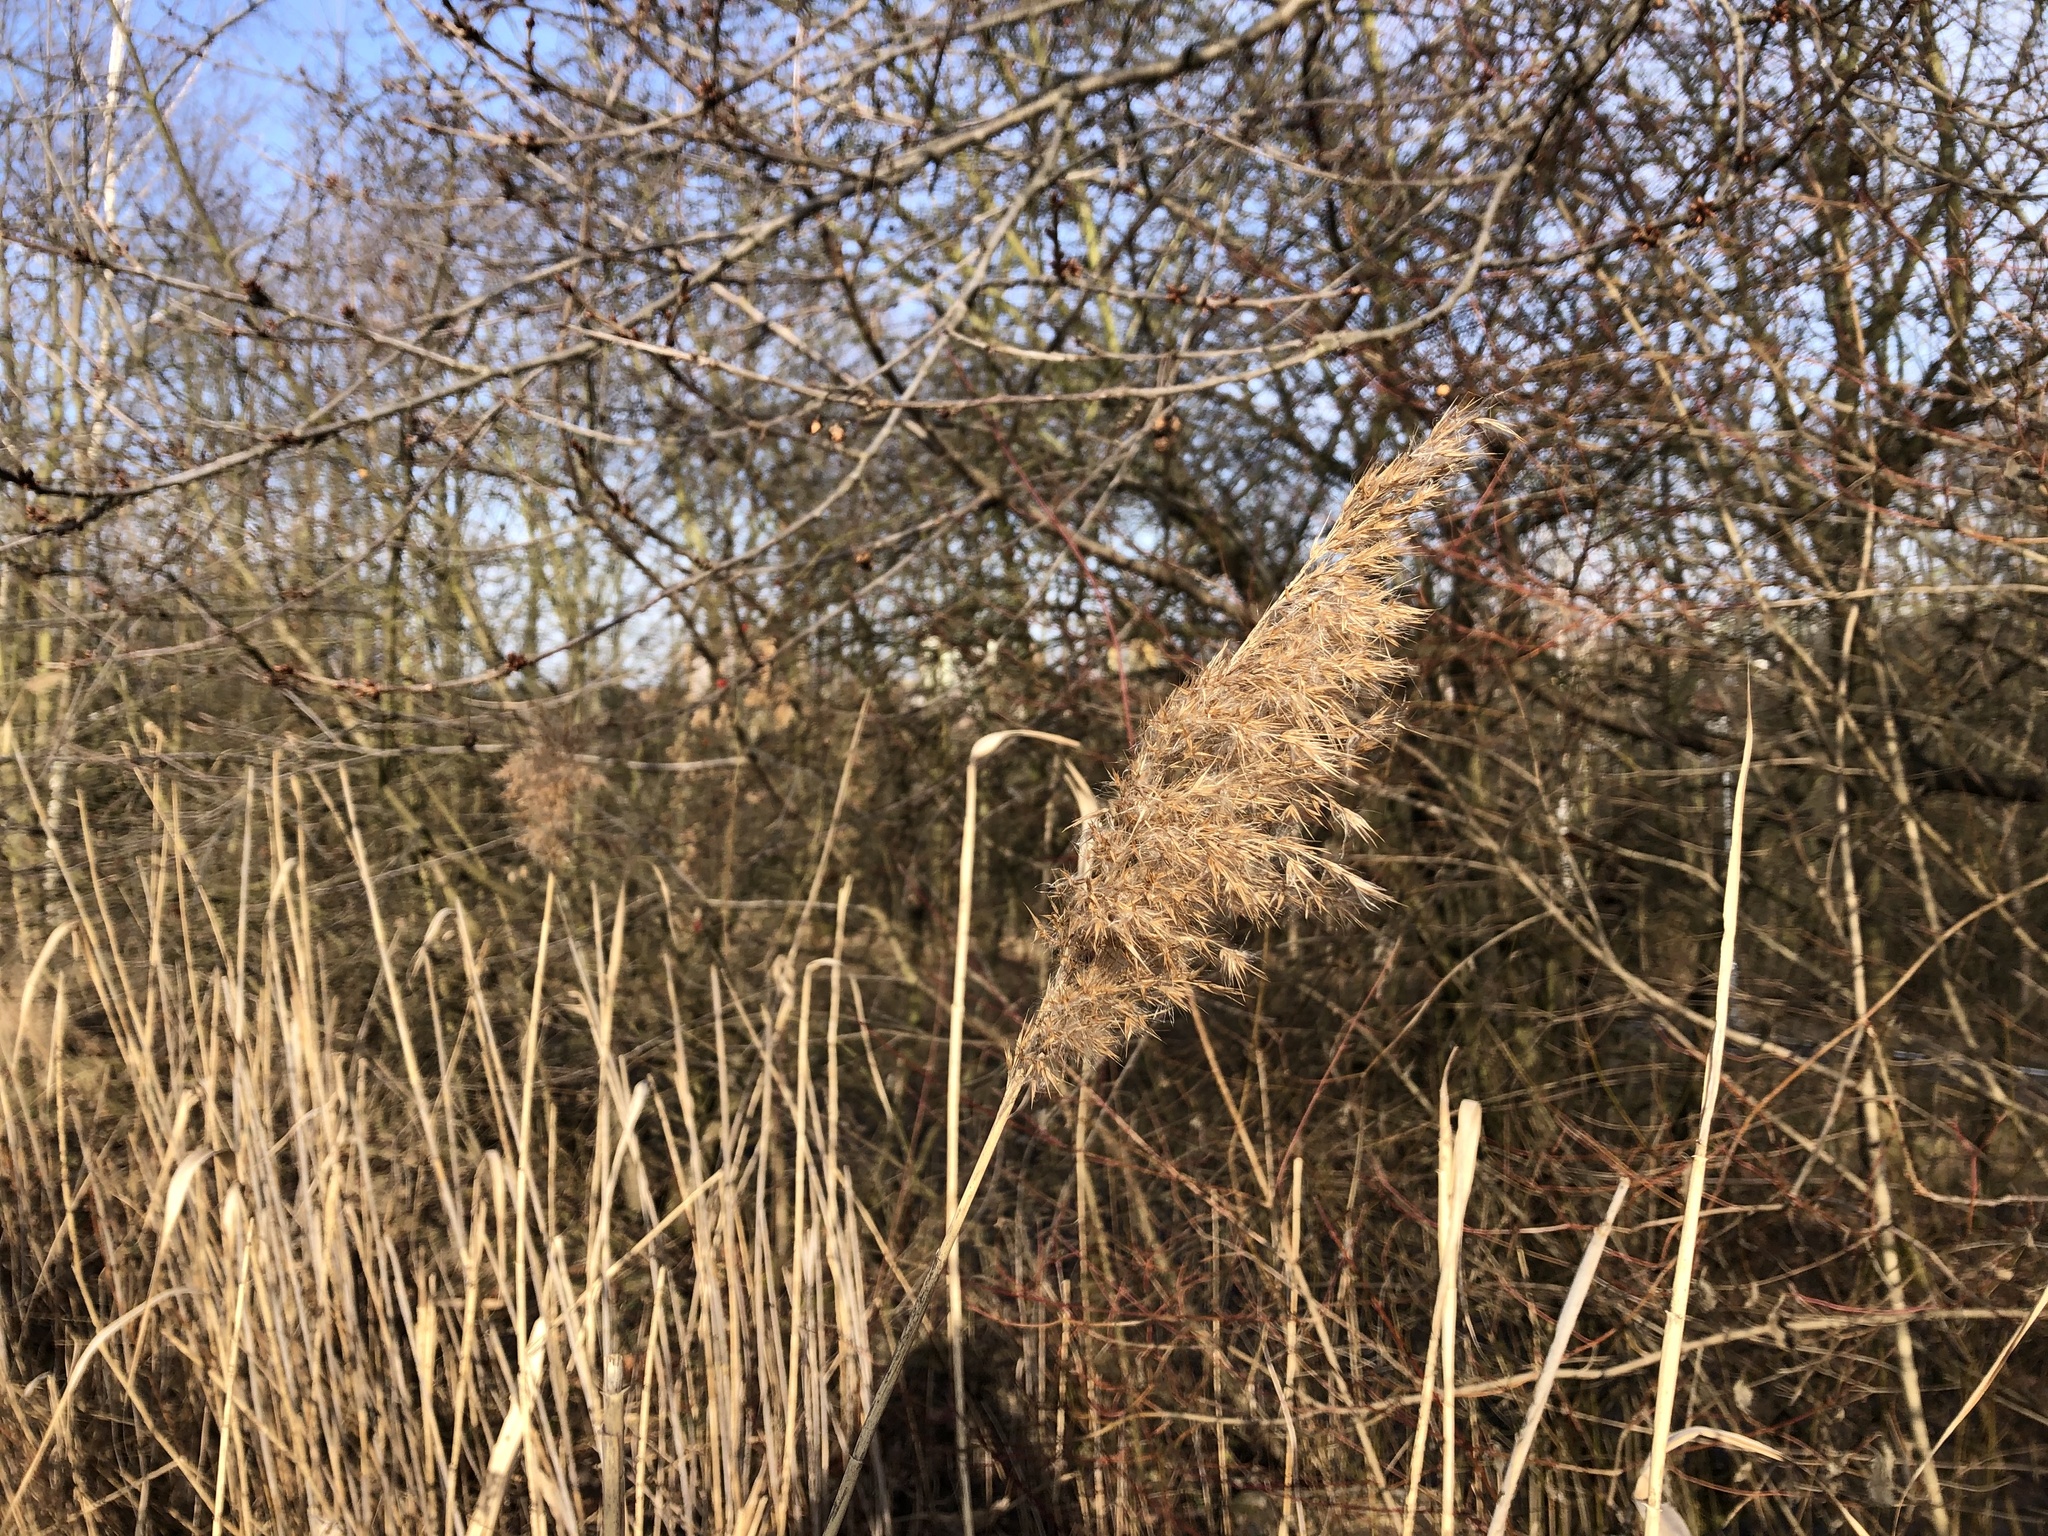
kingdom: Plantae
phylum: Tracheophyta
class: Liliopsida
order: Poales
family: Poaceae
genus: Phragmites
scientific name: Phragmites australis
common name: Common reed
